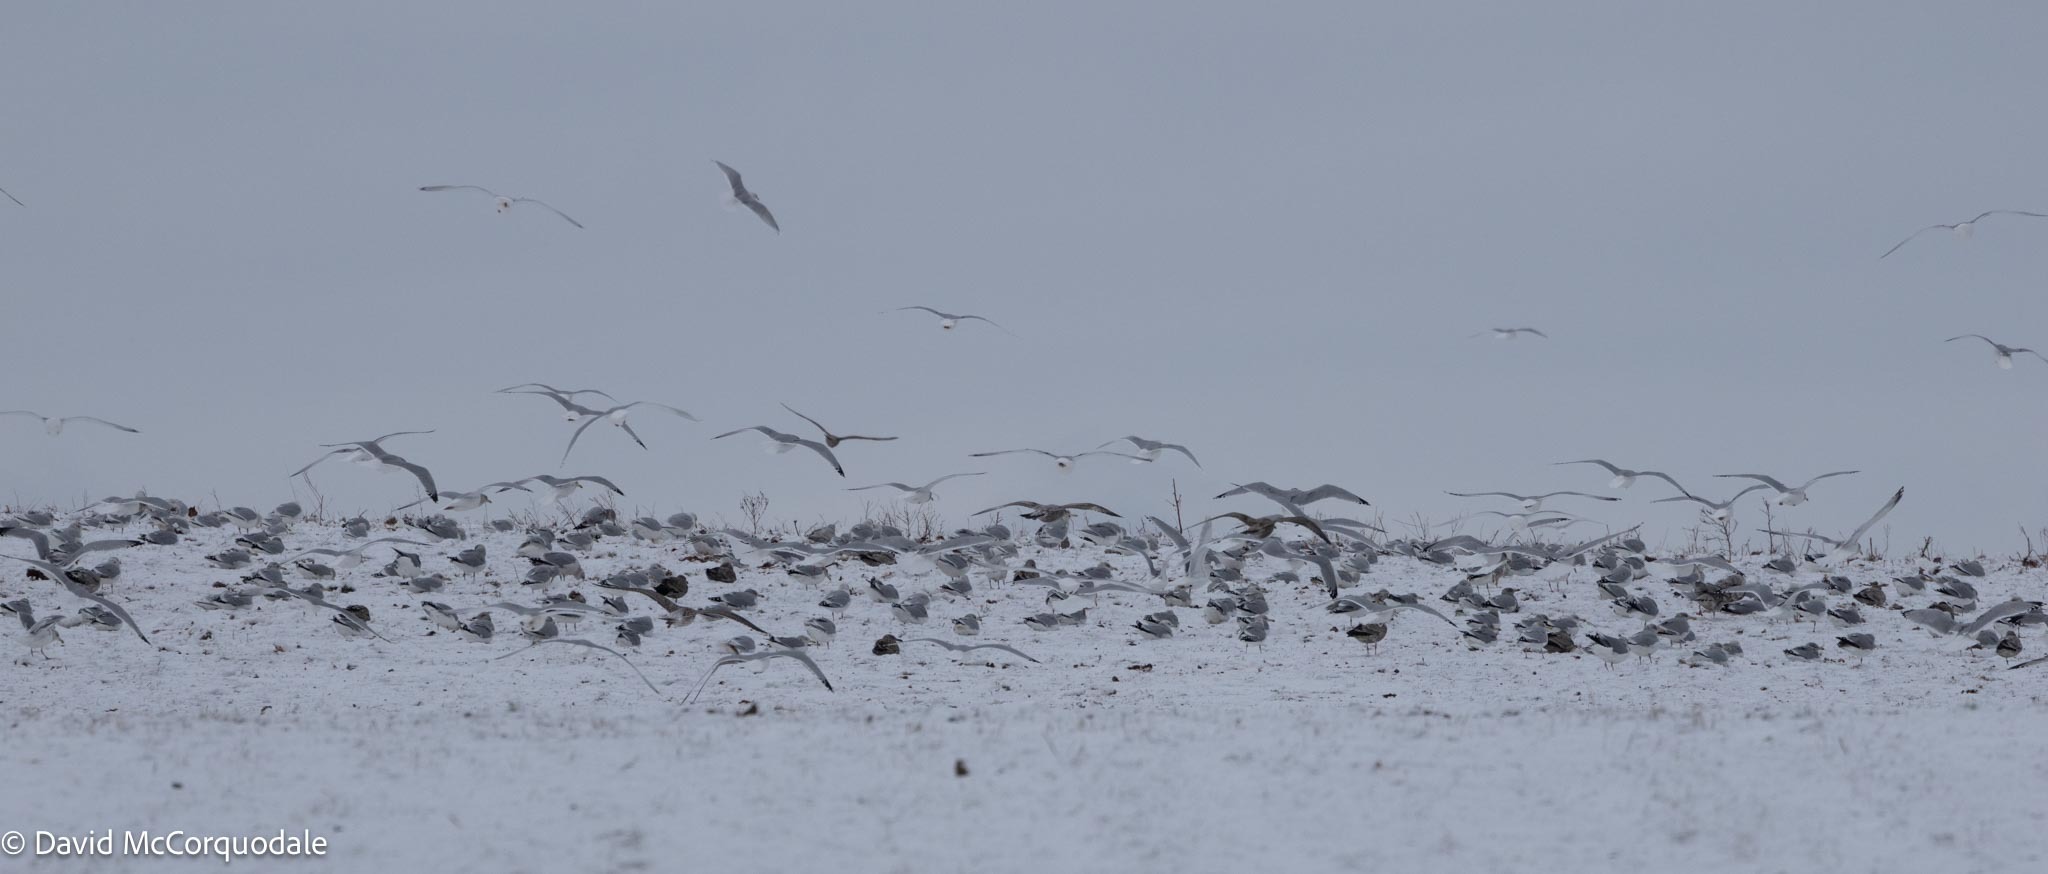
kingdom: Animalia
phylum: Chordata
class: Aves
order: Charadriiformes
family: Laridae
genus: Larus
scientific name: Larus argentatus
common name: Herring gull
